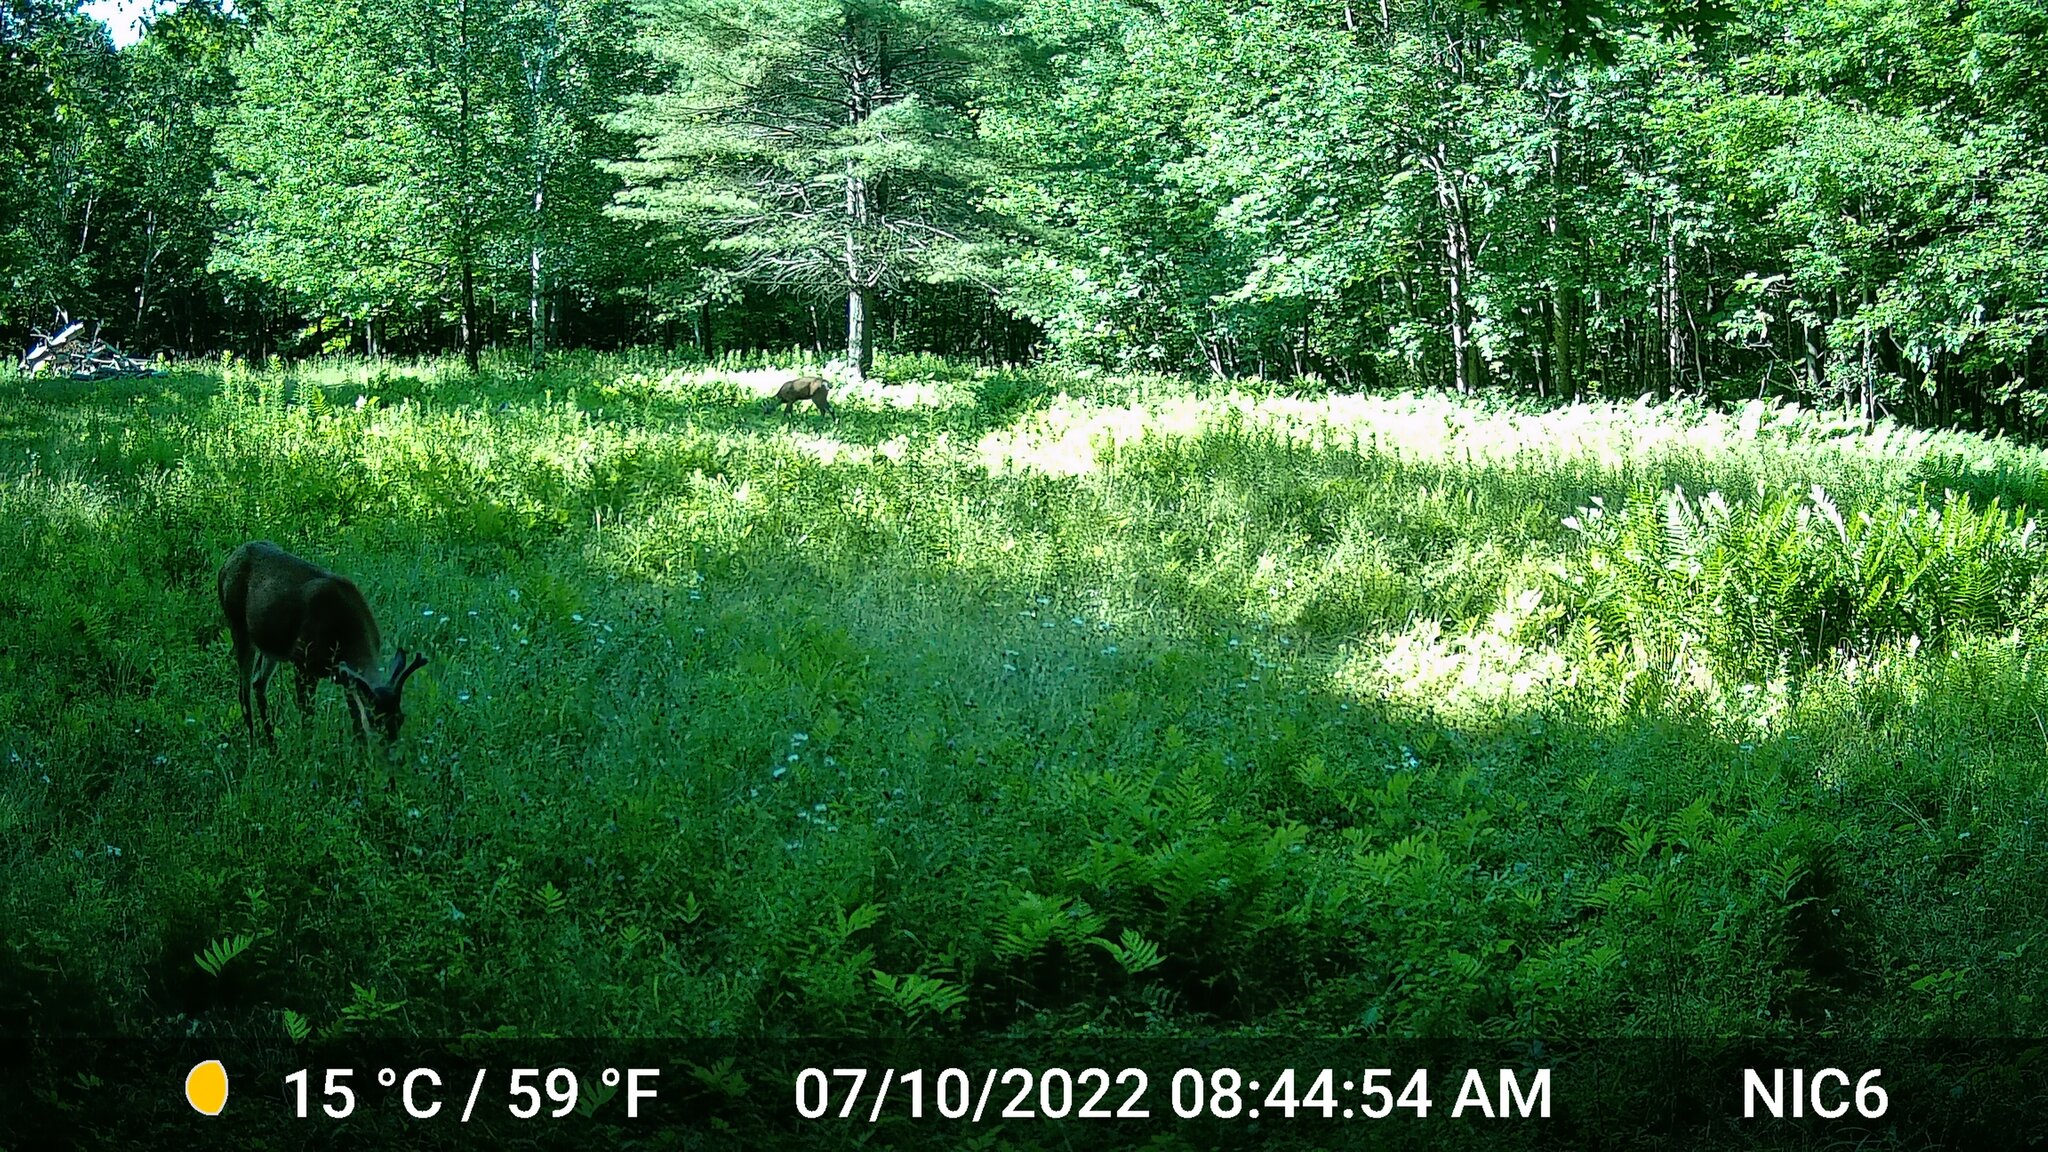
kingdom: Animalia
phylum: Chordata
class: Mammalia
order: Artiodactyla
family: Cervidae
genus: Odocoileus
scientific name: Odocoileus virginianus
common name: White-tailed deer
